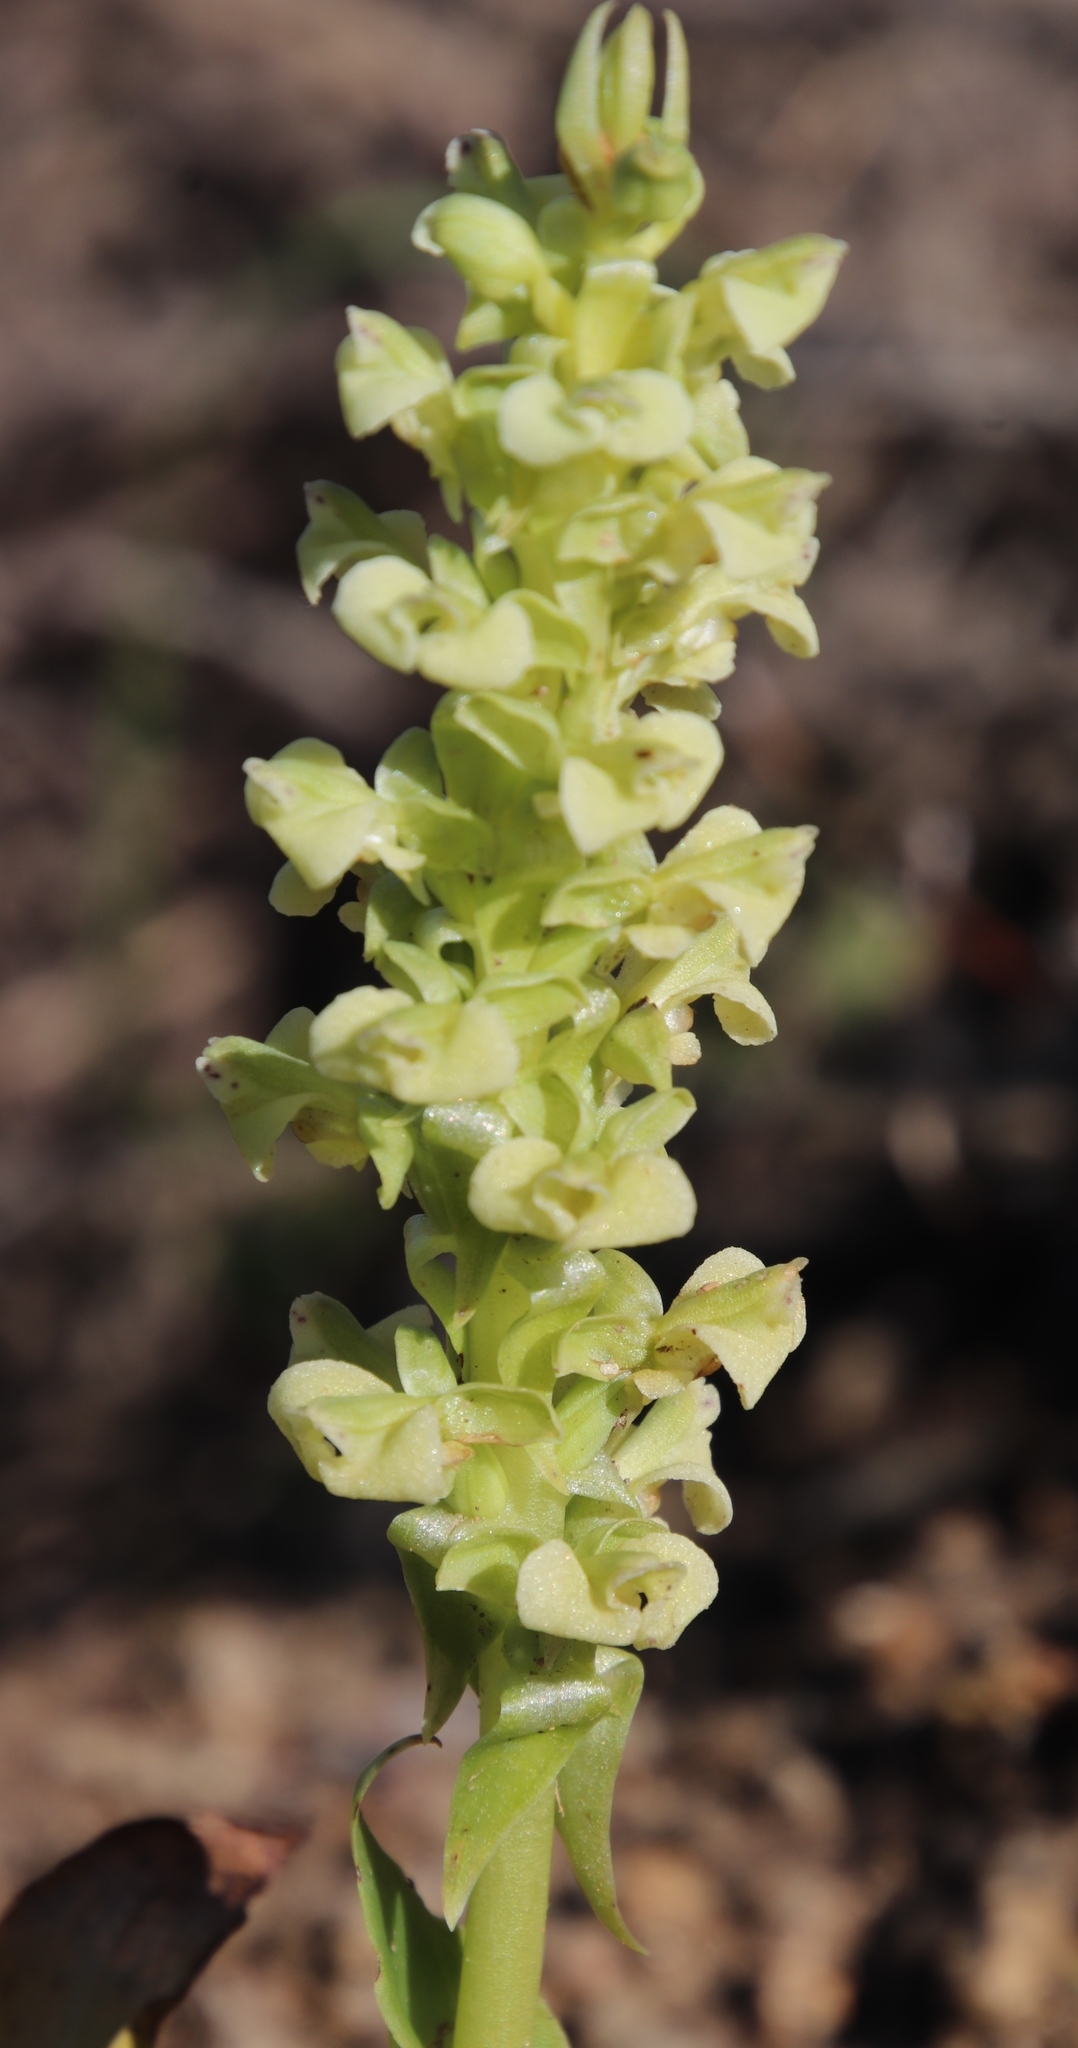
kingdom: Plantae
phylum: Tracheophyta
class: Liliopsida
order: Asparagales
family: Orchidaceae
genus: Pterygodium
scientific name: Pterygodium volucris
